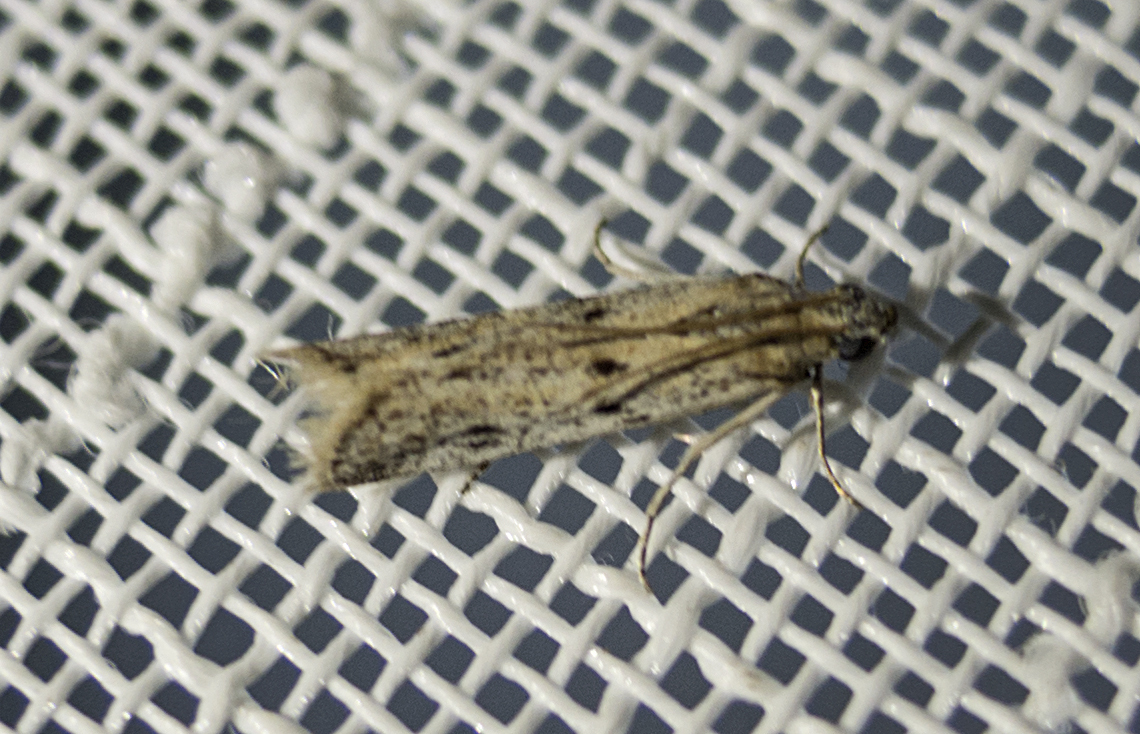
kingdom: Animalia
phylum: Arthropoda
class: Insecta
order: Lepidoptera
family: Pyralidae
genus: Phycitodes
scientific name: Phycitodes
